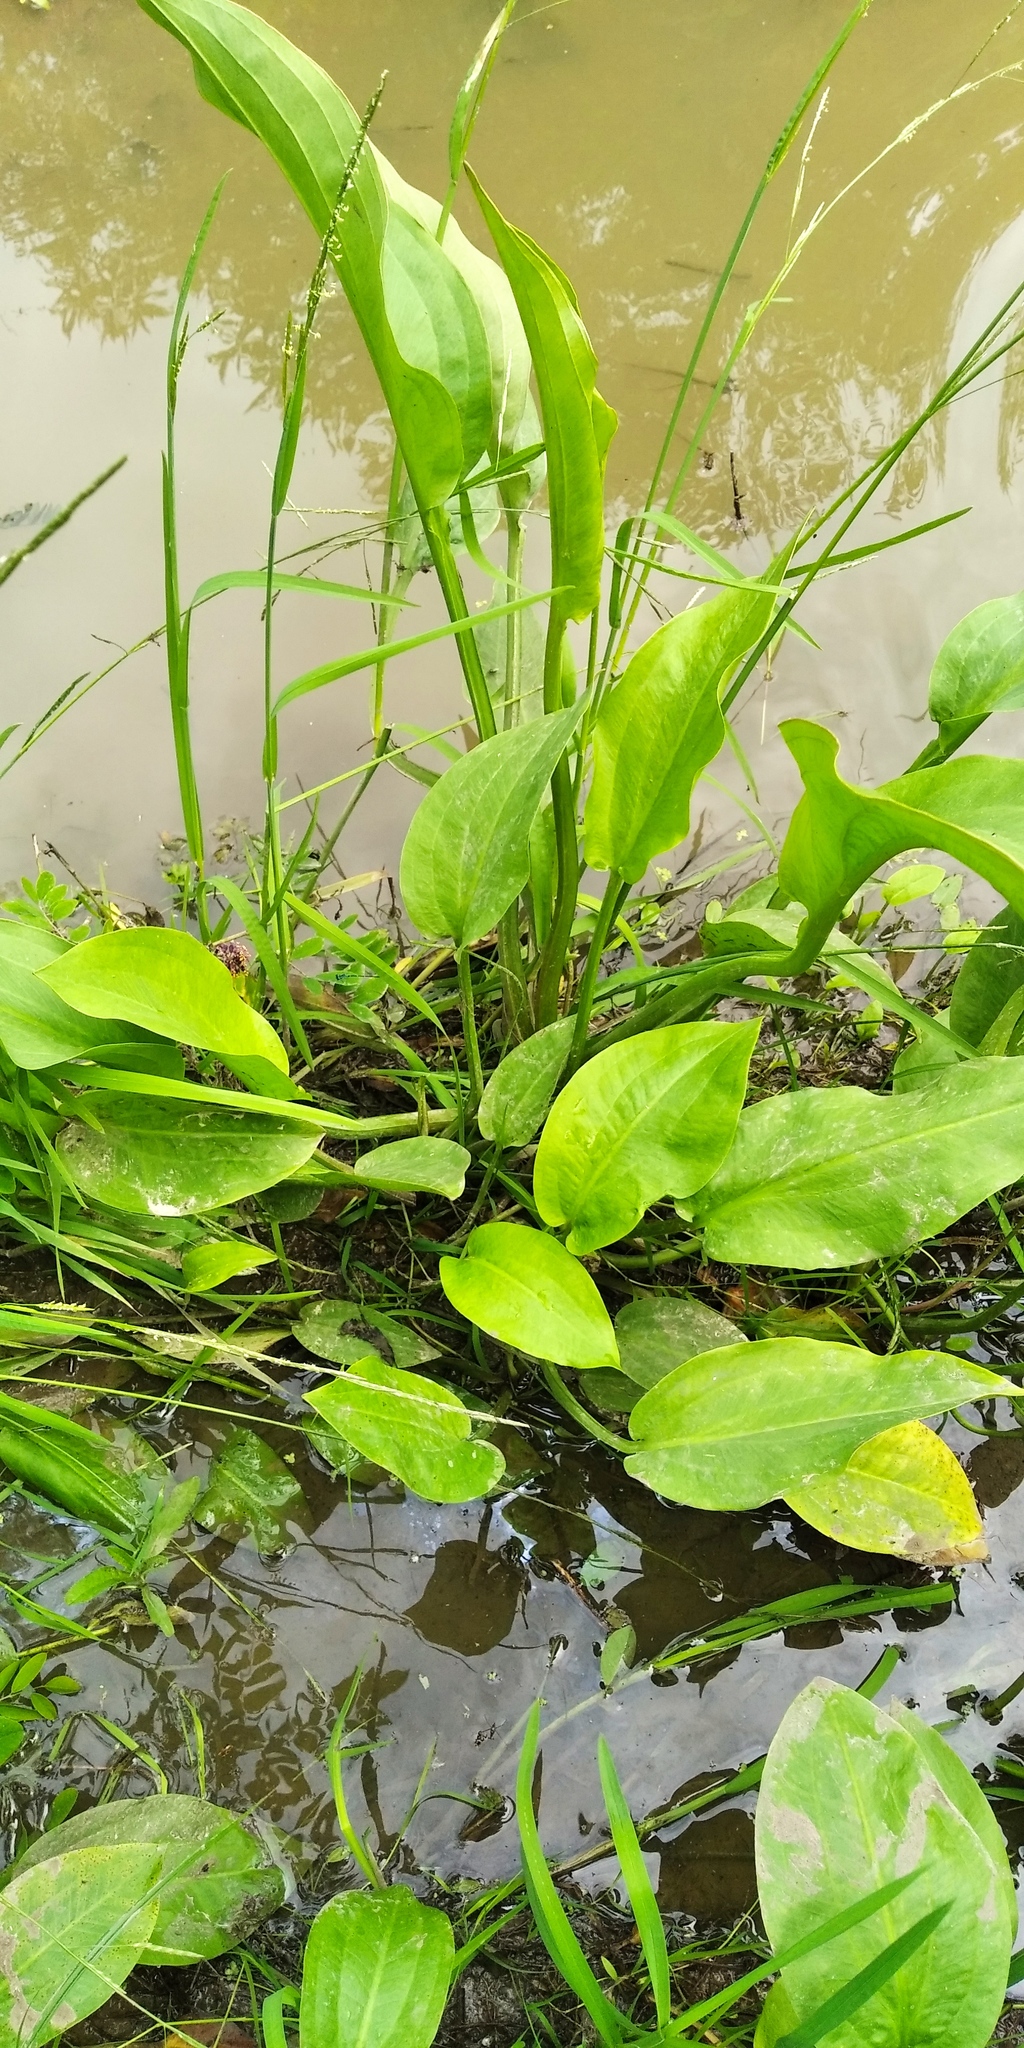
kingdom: Plantae
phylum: Tracheophyta
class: Liliopsida
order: Alismatales
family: Alismataceae
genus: Alisma
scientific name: Alisma plantago-aquatica
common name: Water-plantain
